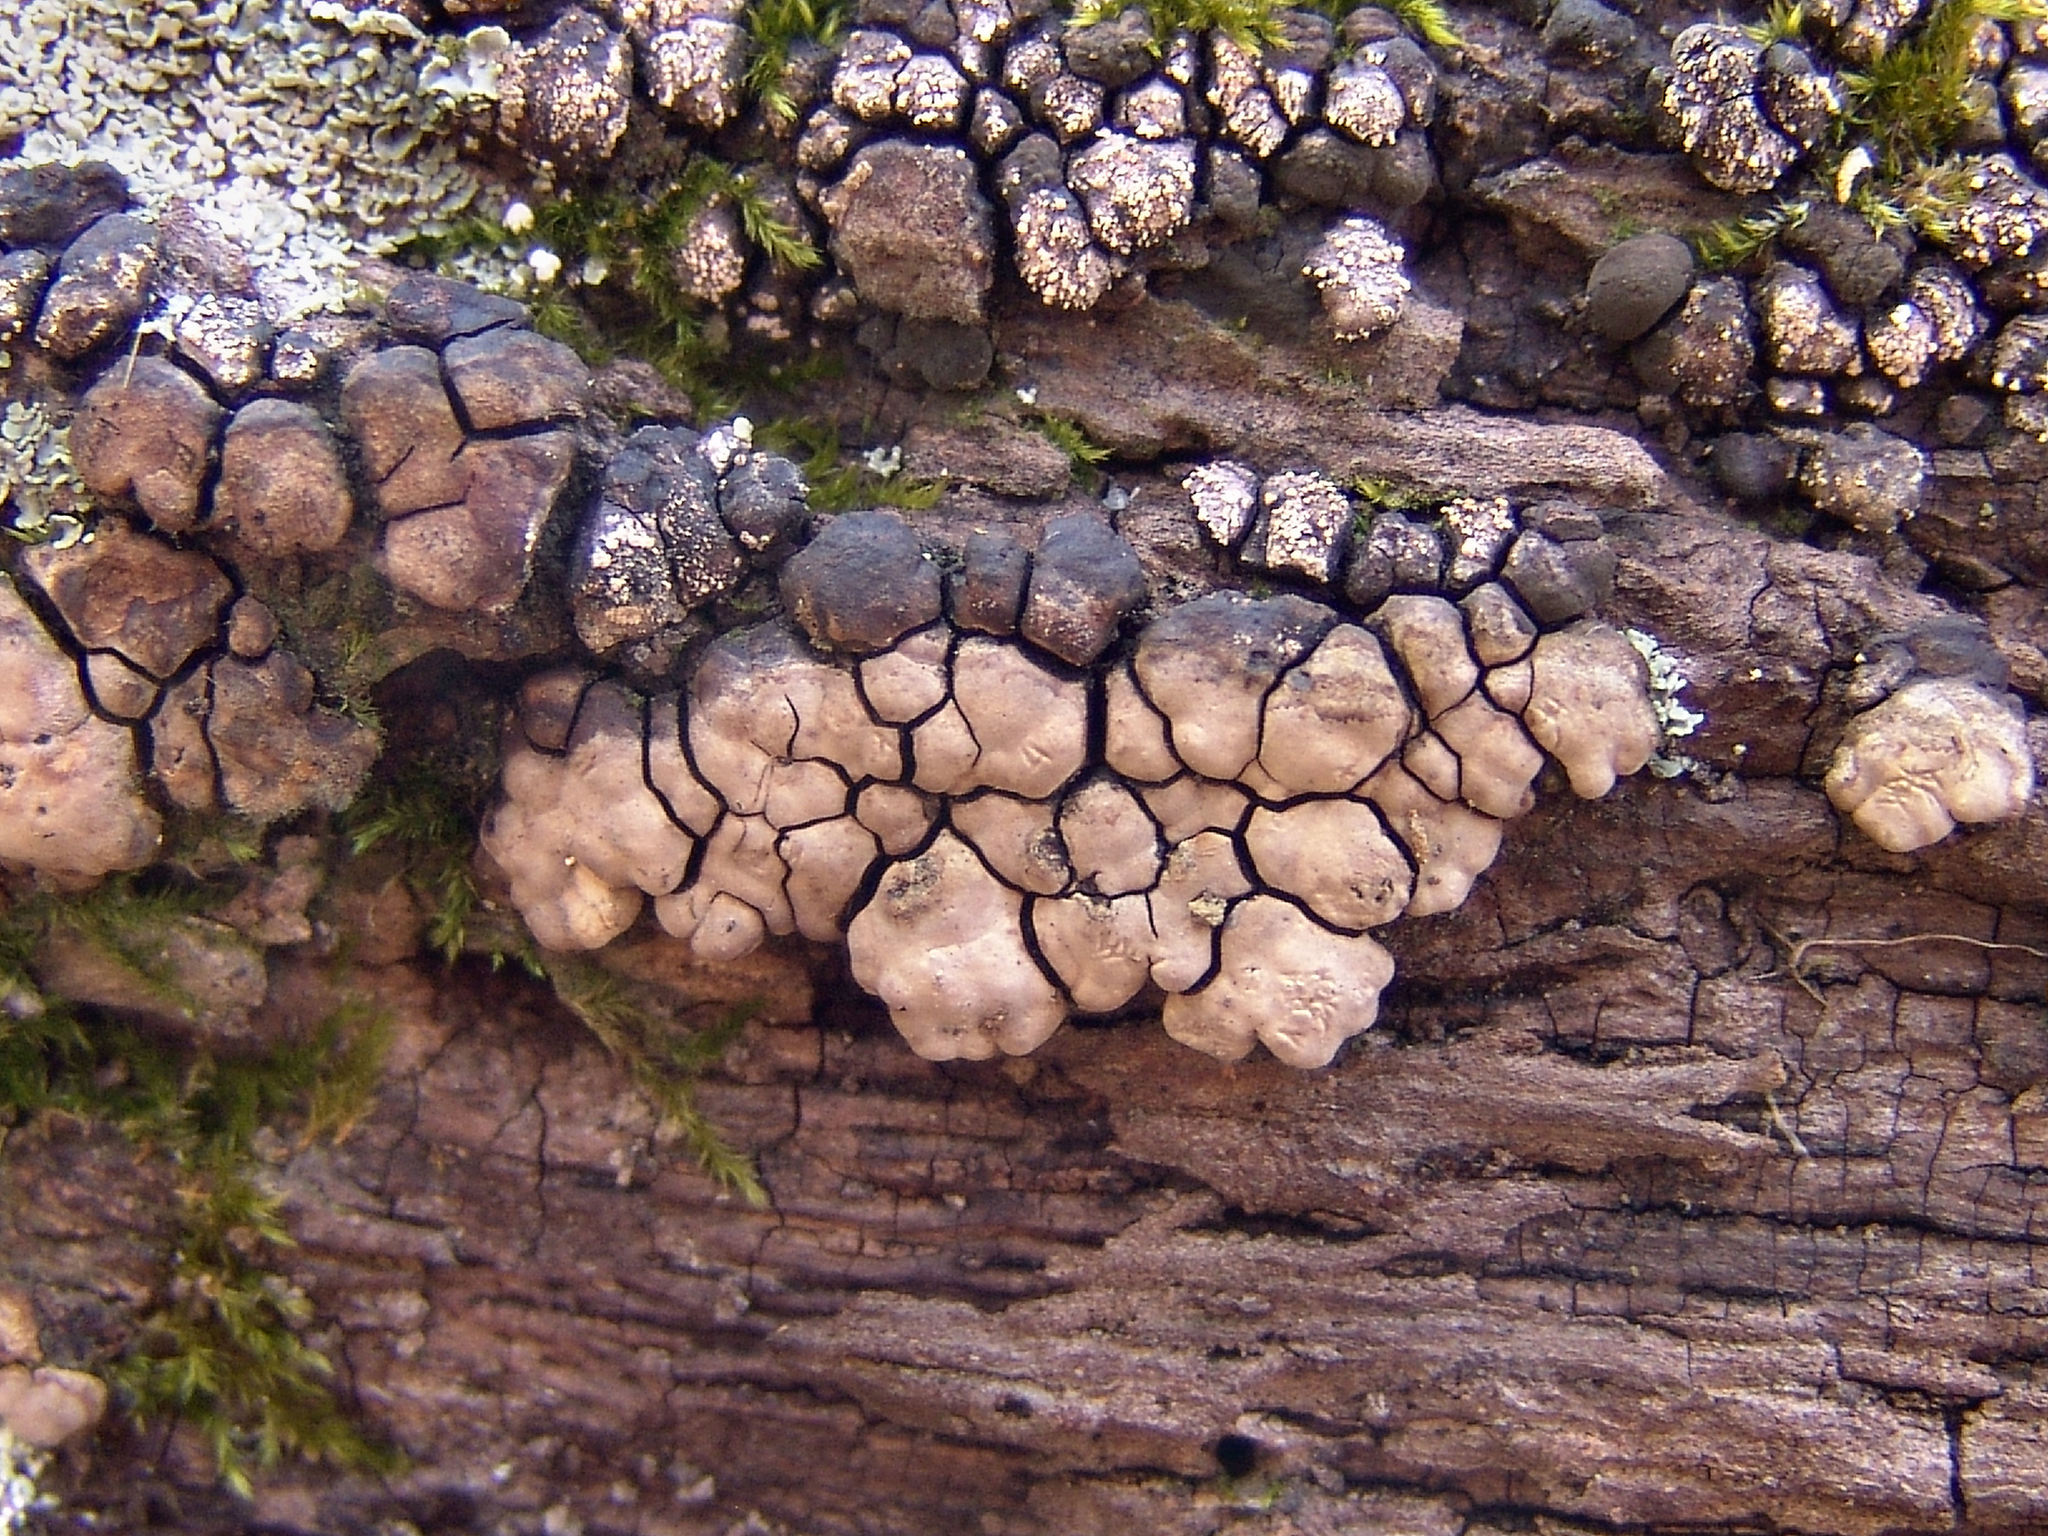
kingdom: Fungi
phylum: Basidiomycota
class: Agaricomycetes
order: Russulales
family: Stereaceae
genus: Xylobolus
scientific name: Xylobolus frustulatus
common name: Ceramic parchment
